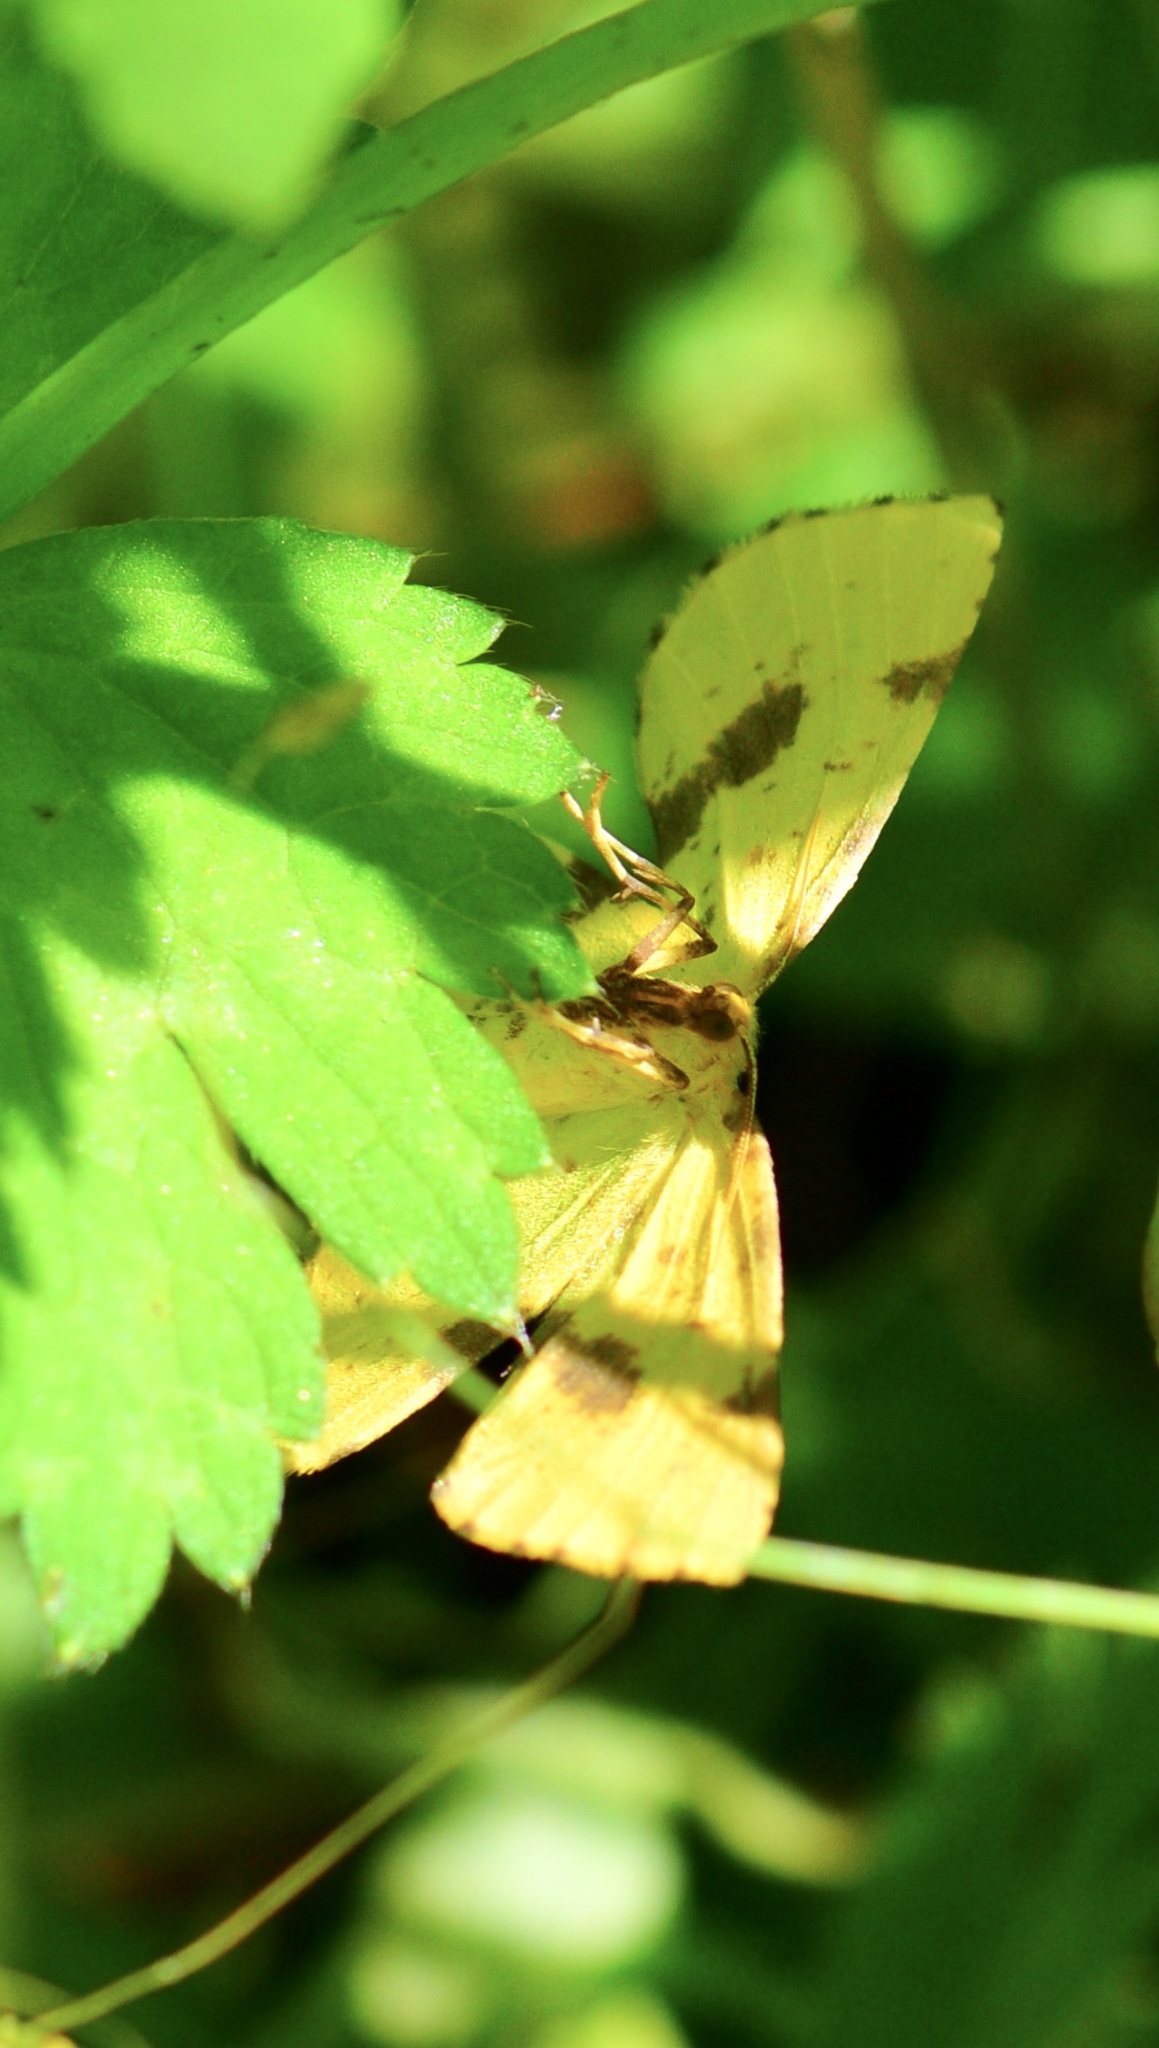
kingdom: Animalia
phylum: Arthropoda
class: Insecta
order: Lepidoptera
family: Geometridae
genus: Xanthotype
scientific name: Xanthotype
